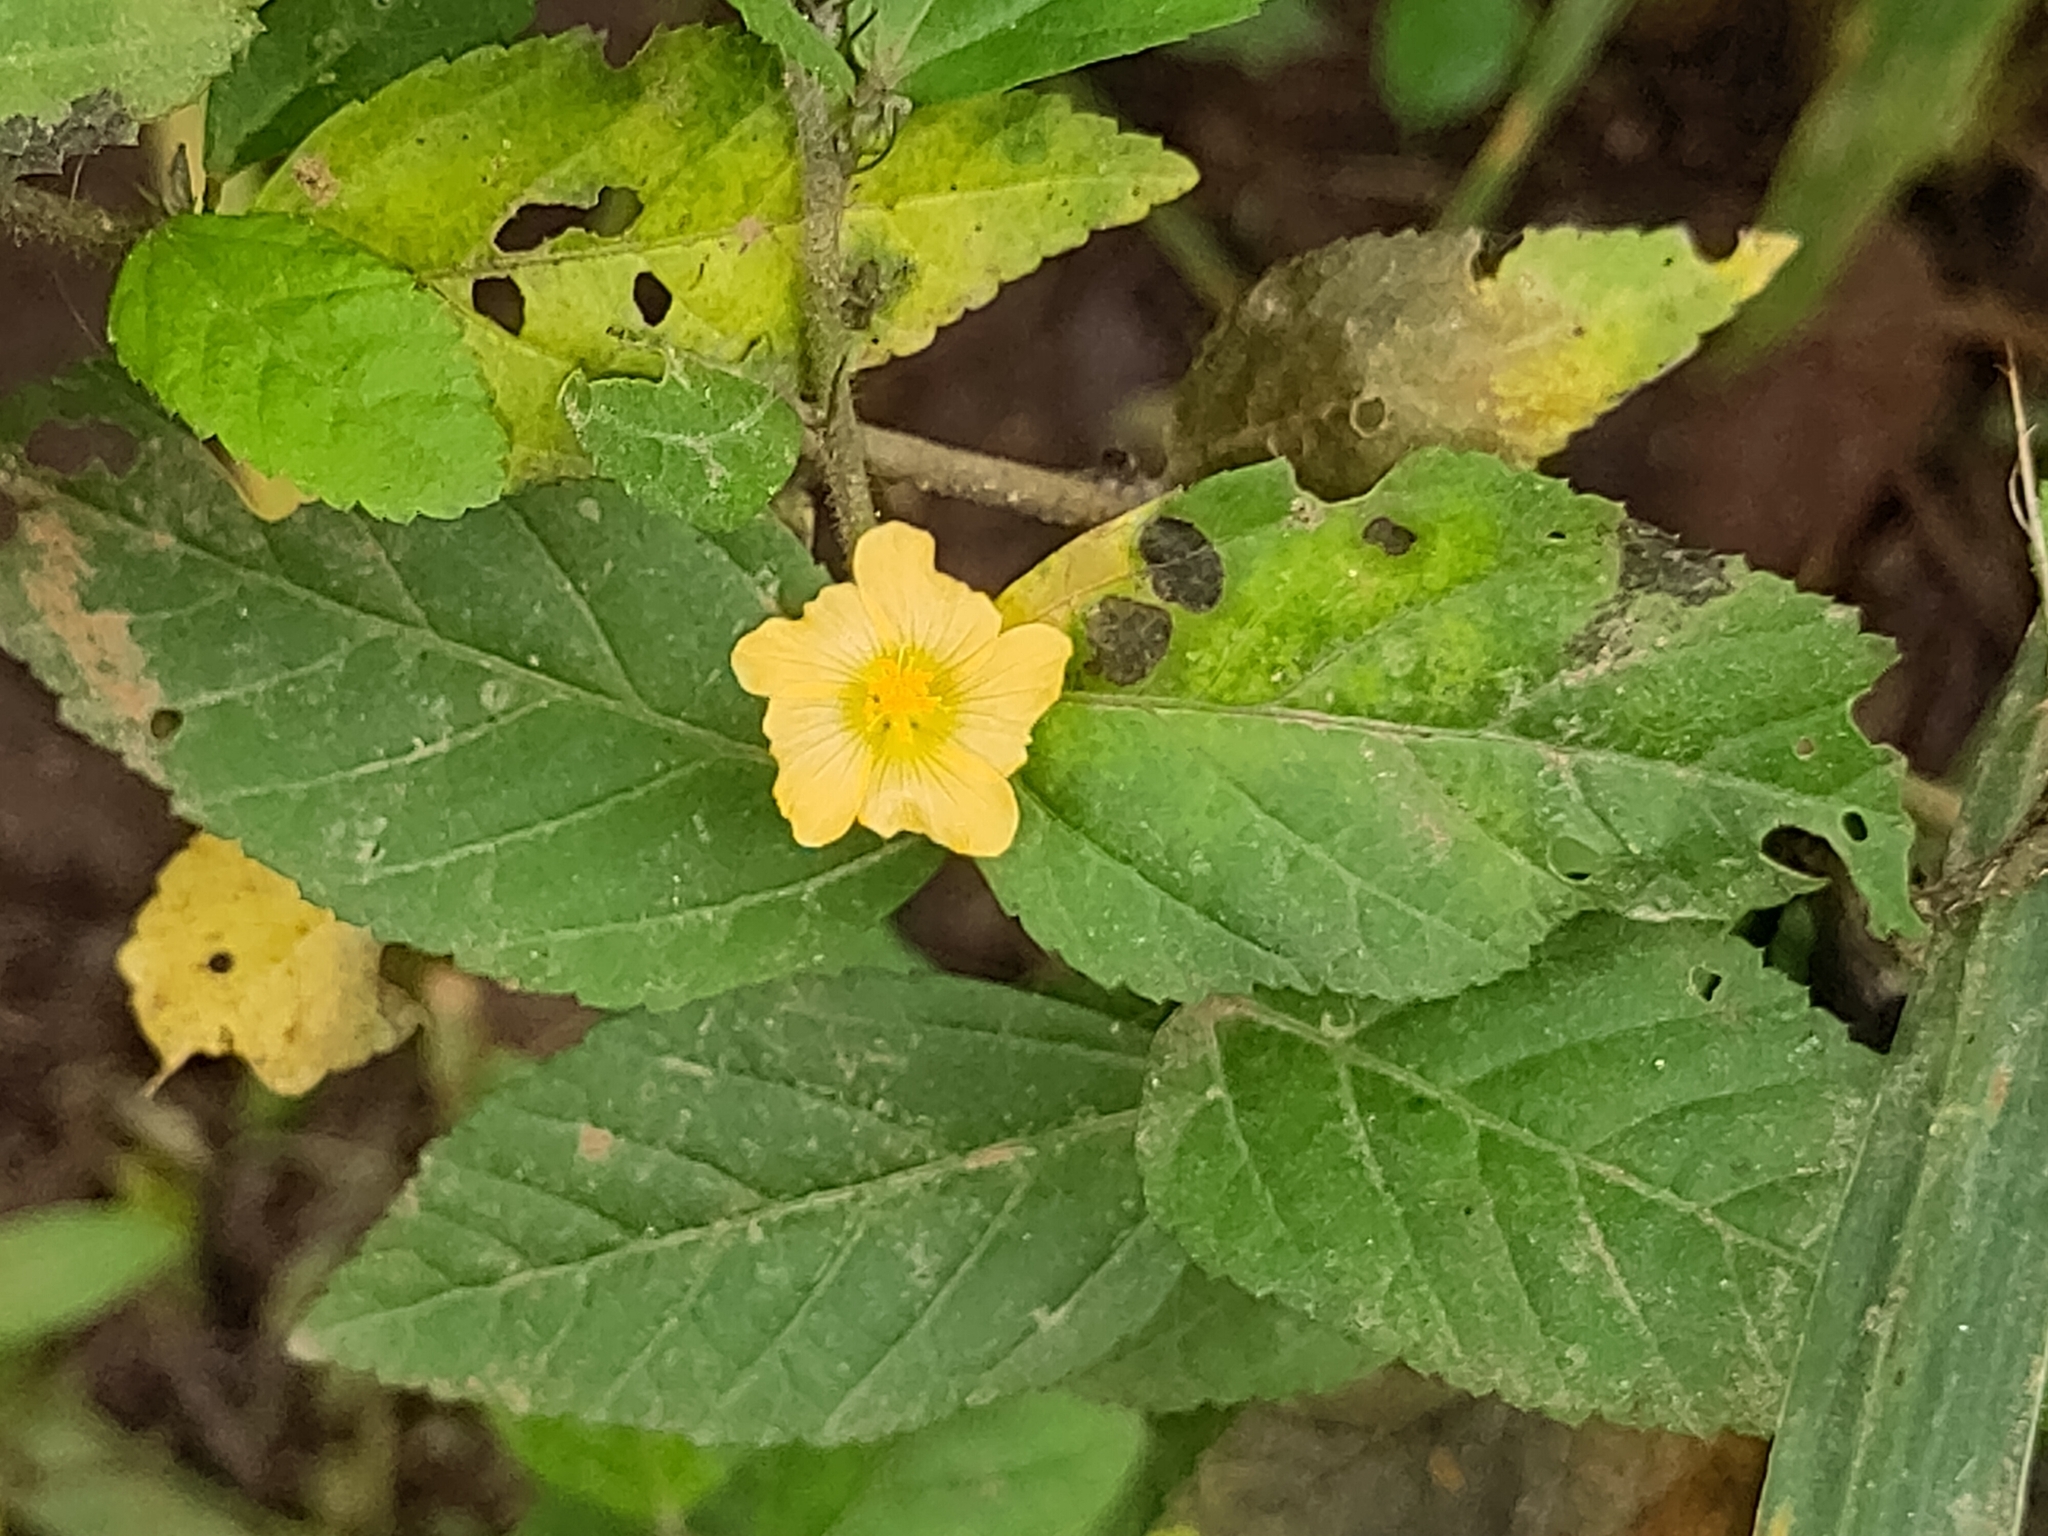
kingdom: Plantae
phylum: Tracheophyta
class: Magnoliopsida
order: Malvales
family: Malvaceae
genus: Sida
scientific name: Sida rhombifolia
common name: Queensland-hemp
